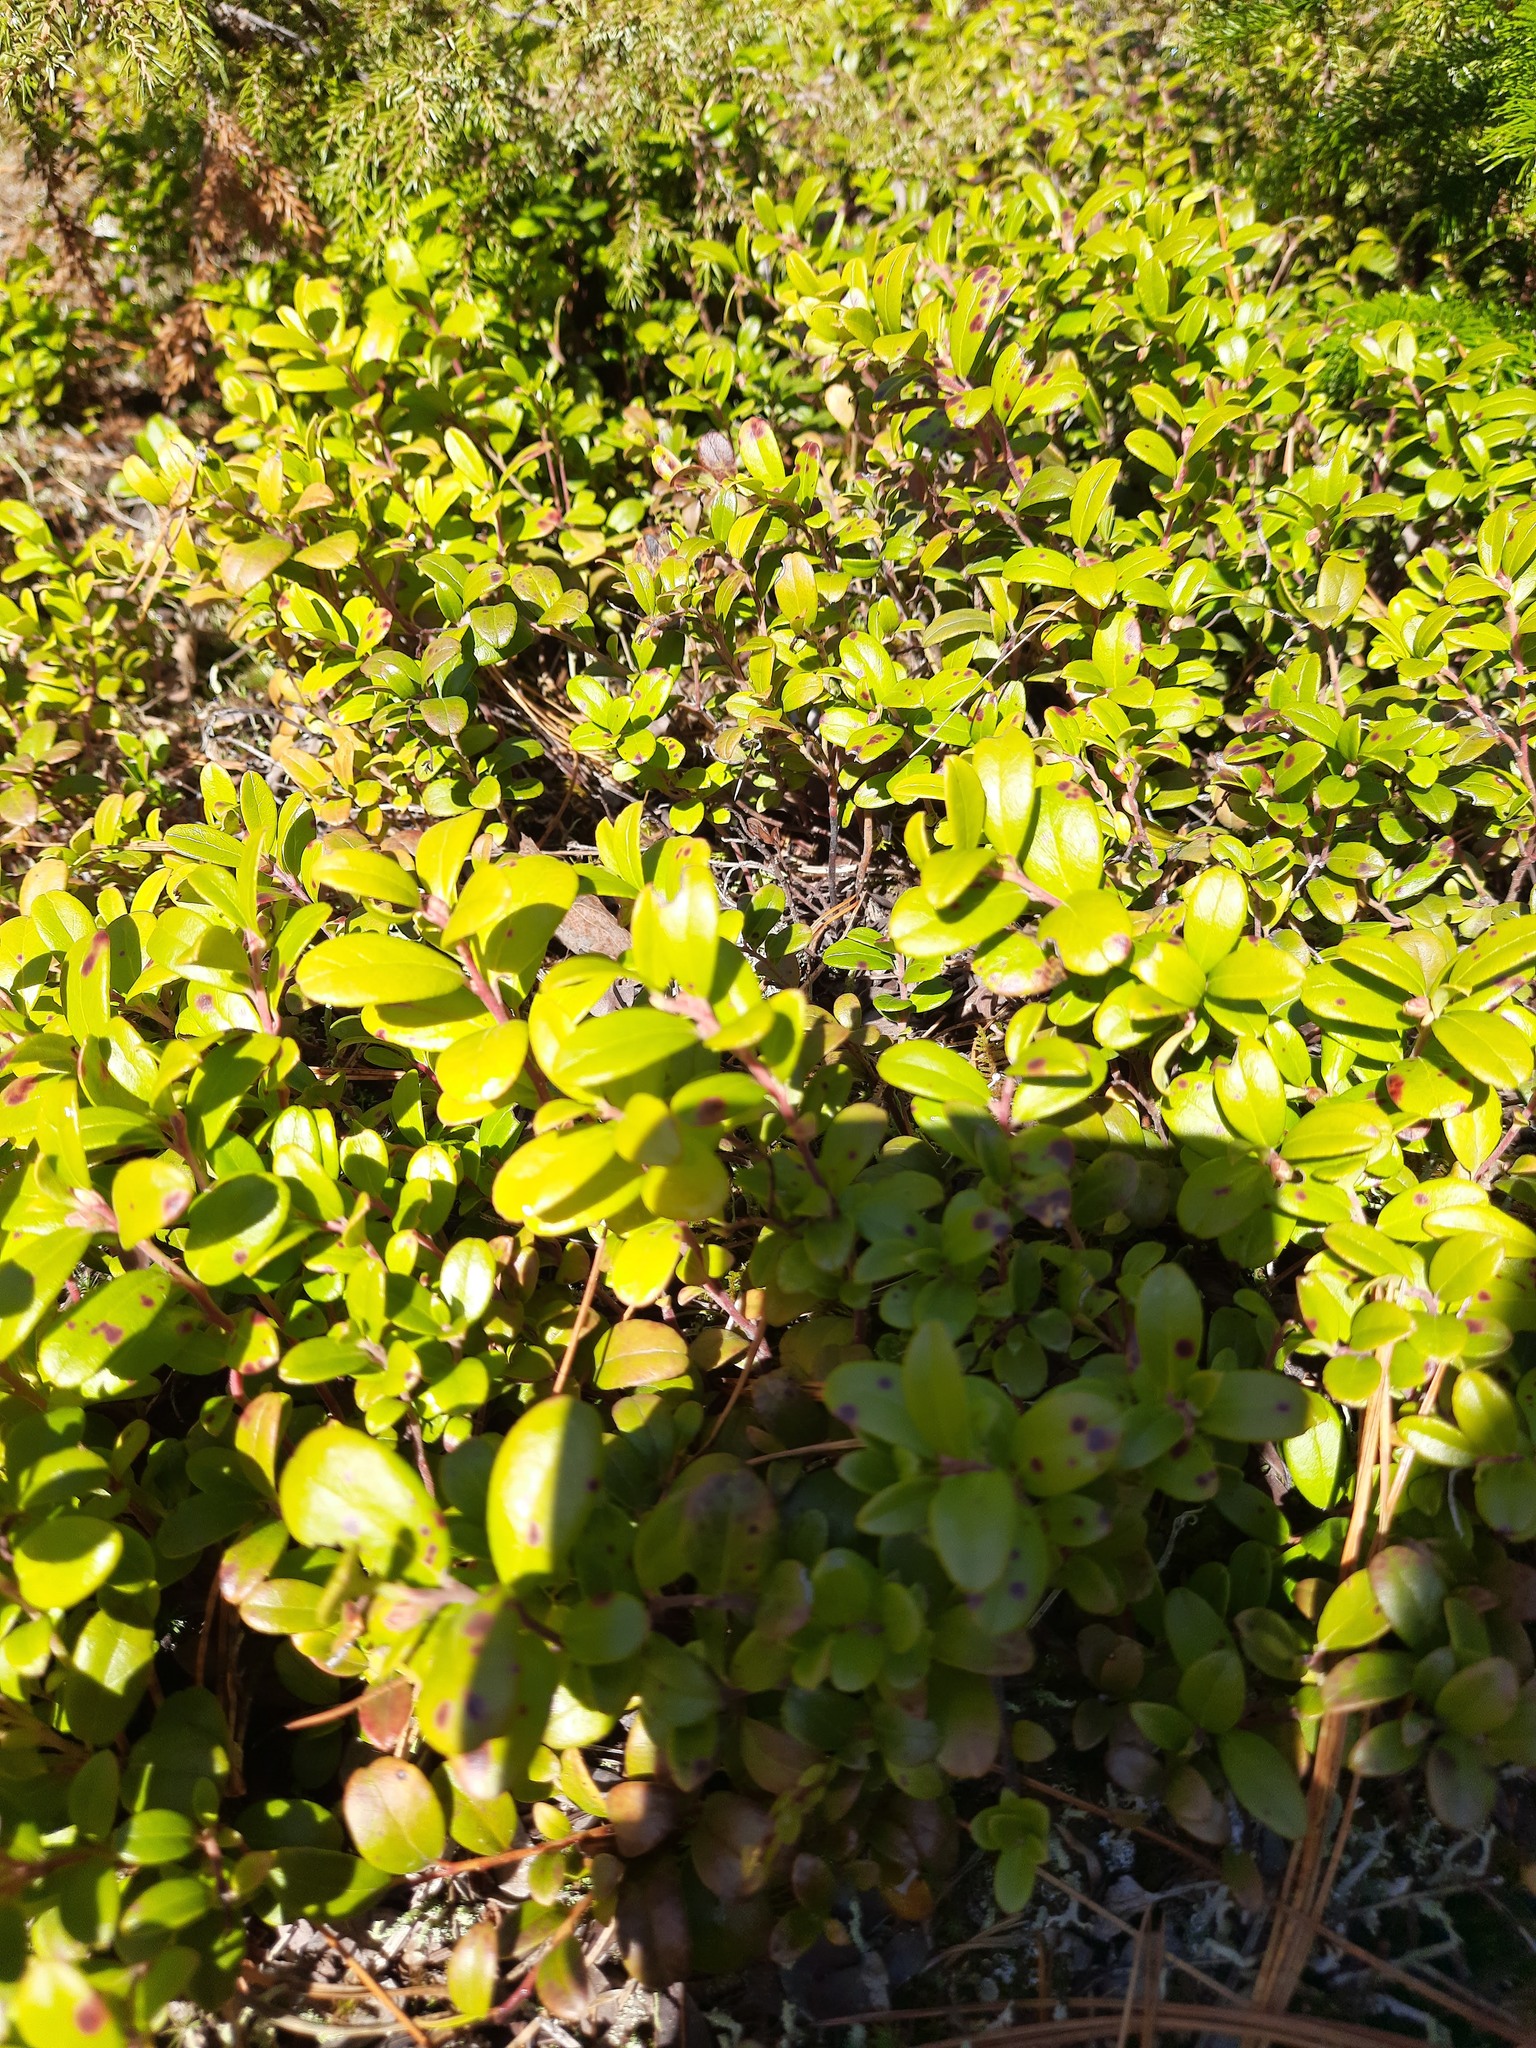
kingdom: Plantae
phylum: Tracheophyta
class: Magnoliopsida
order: Ericales
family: Ericaceae
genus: Vaccinium
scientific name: Vaccinium vitis-idaea
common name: Cowberry
